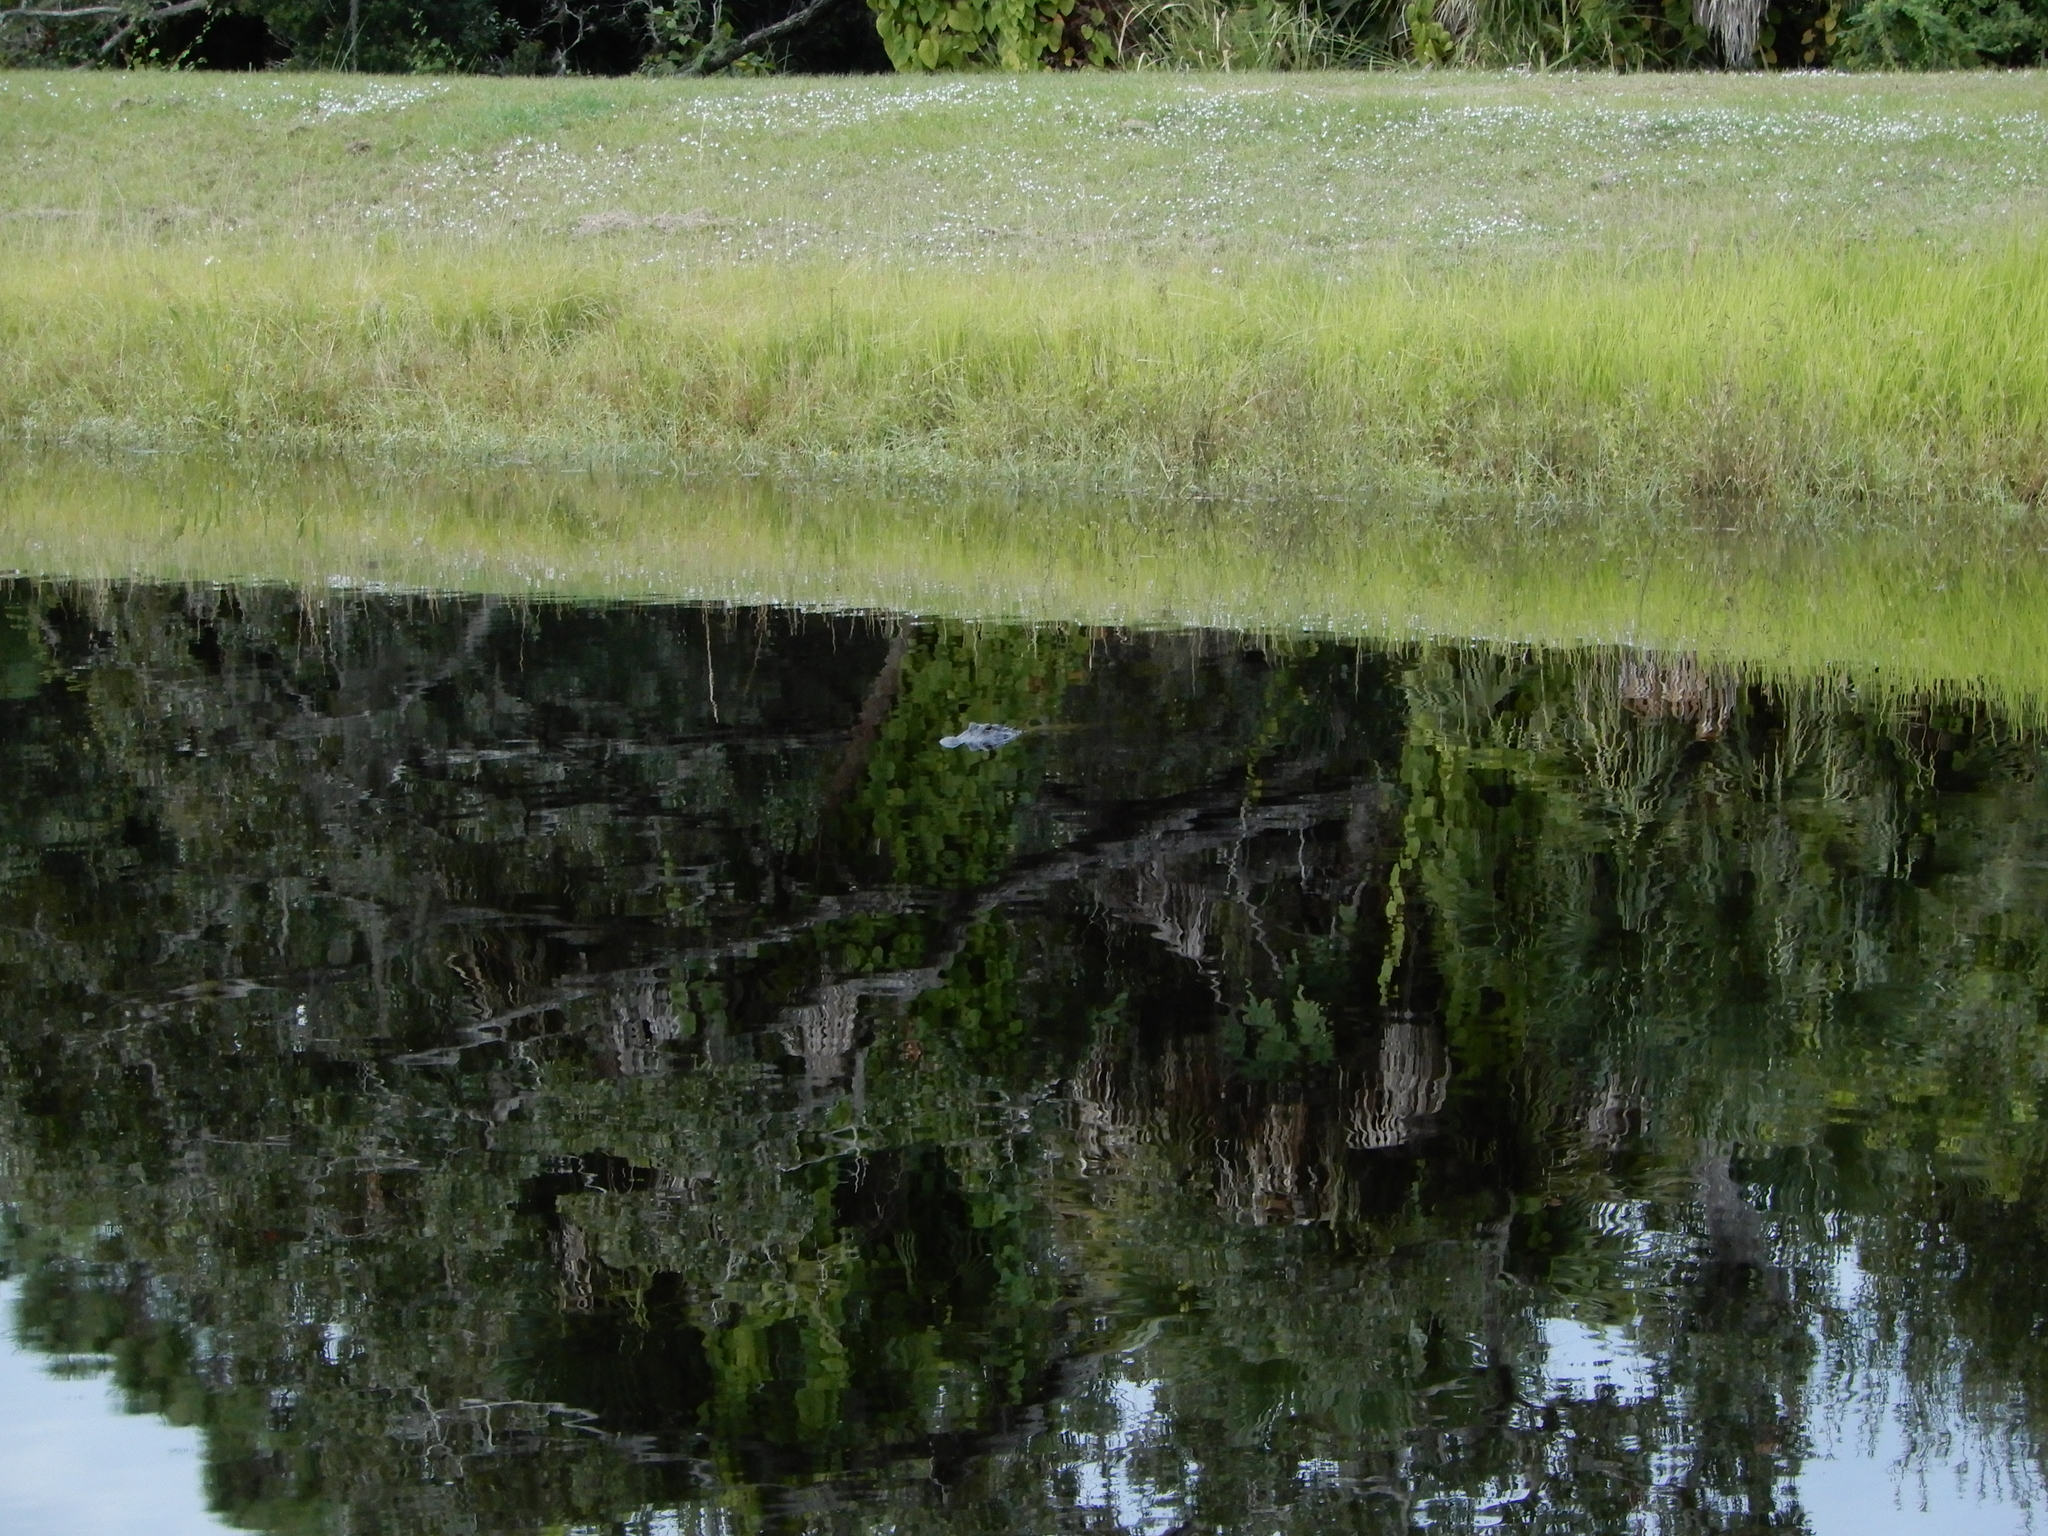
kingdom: Animalia
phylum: Chordata
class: Crocodylia
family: Alligatoridae
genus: Alligator
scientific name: Alligator mississippiensis
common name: American alligator
